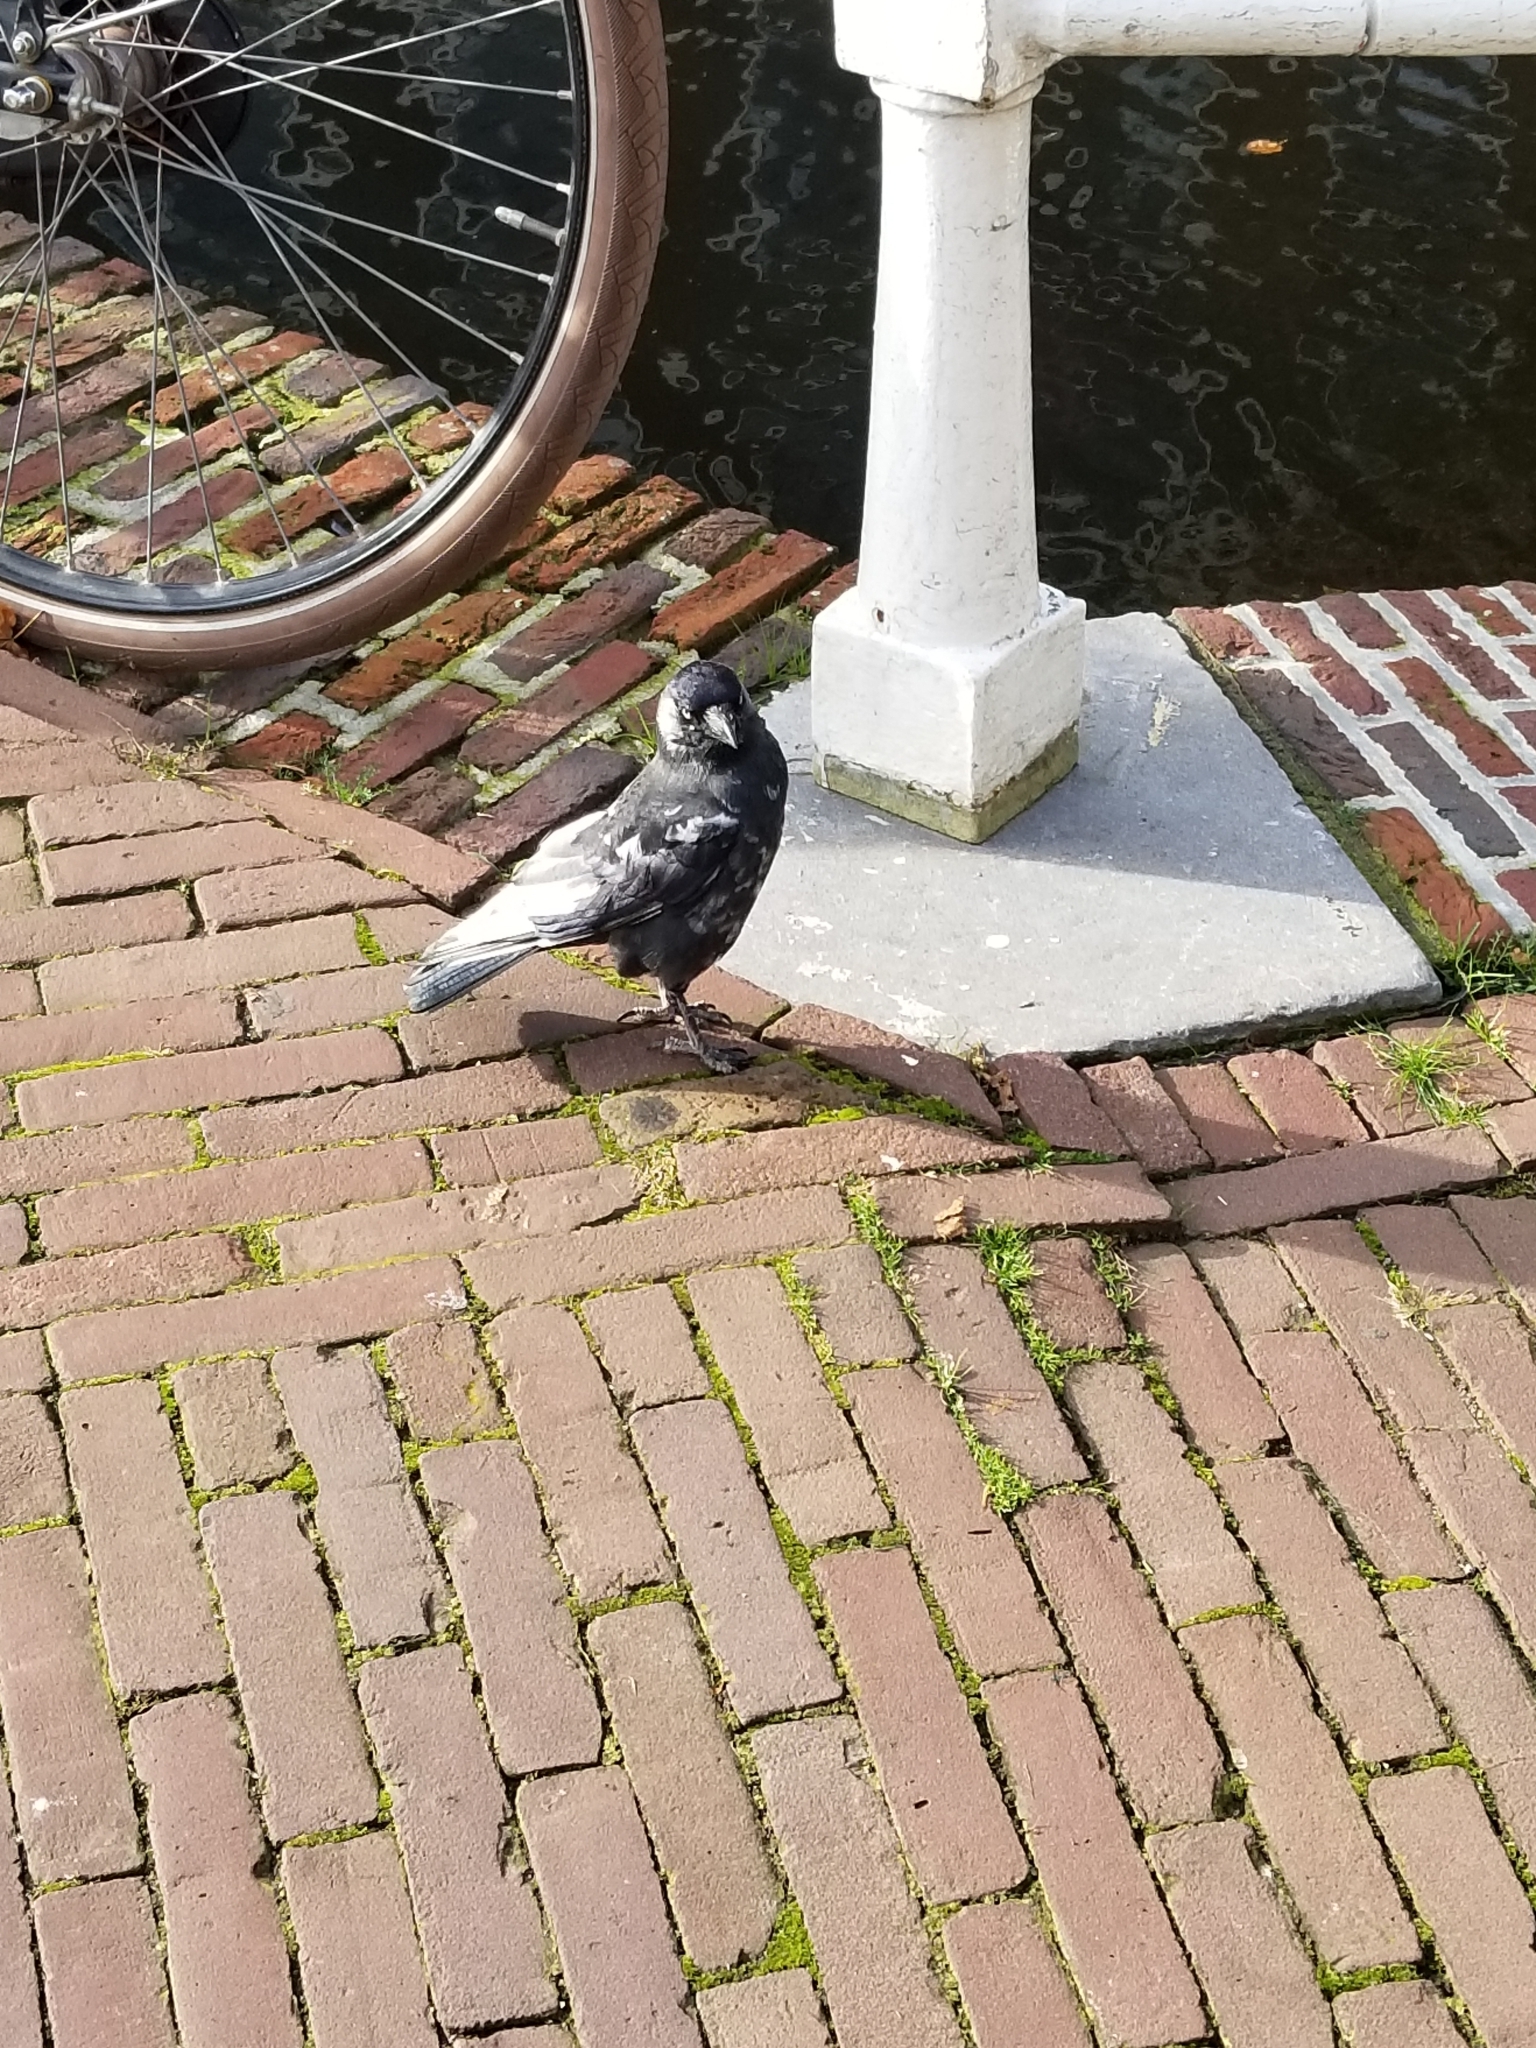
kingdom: Animalia
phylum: Chordata
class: Aves
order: Passeriformes
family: Corvidae
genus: Coloeus
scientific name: Coloeus monedula
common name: Western jackdaw
